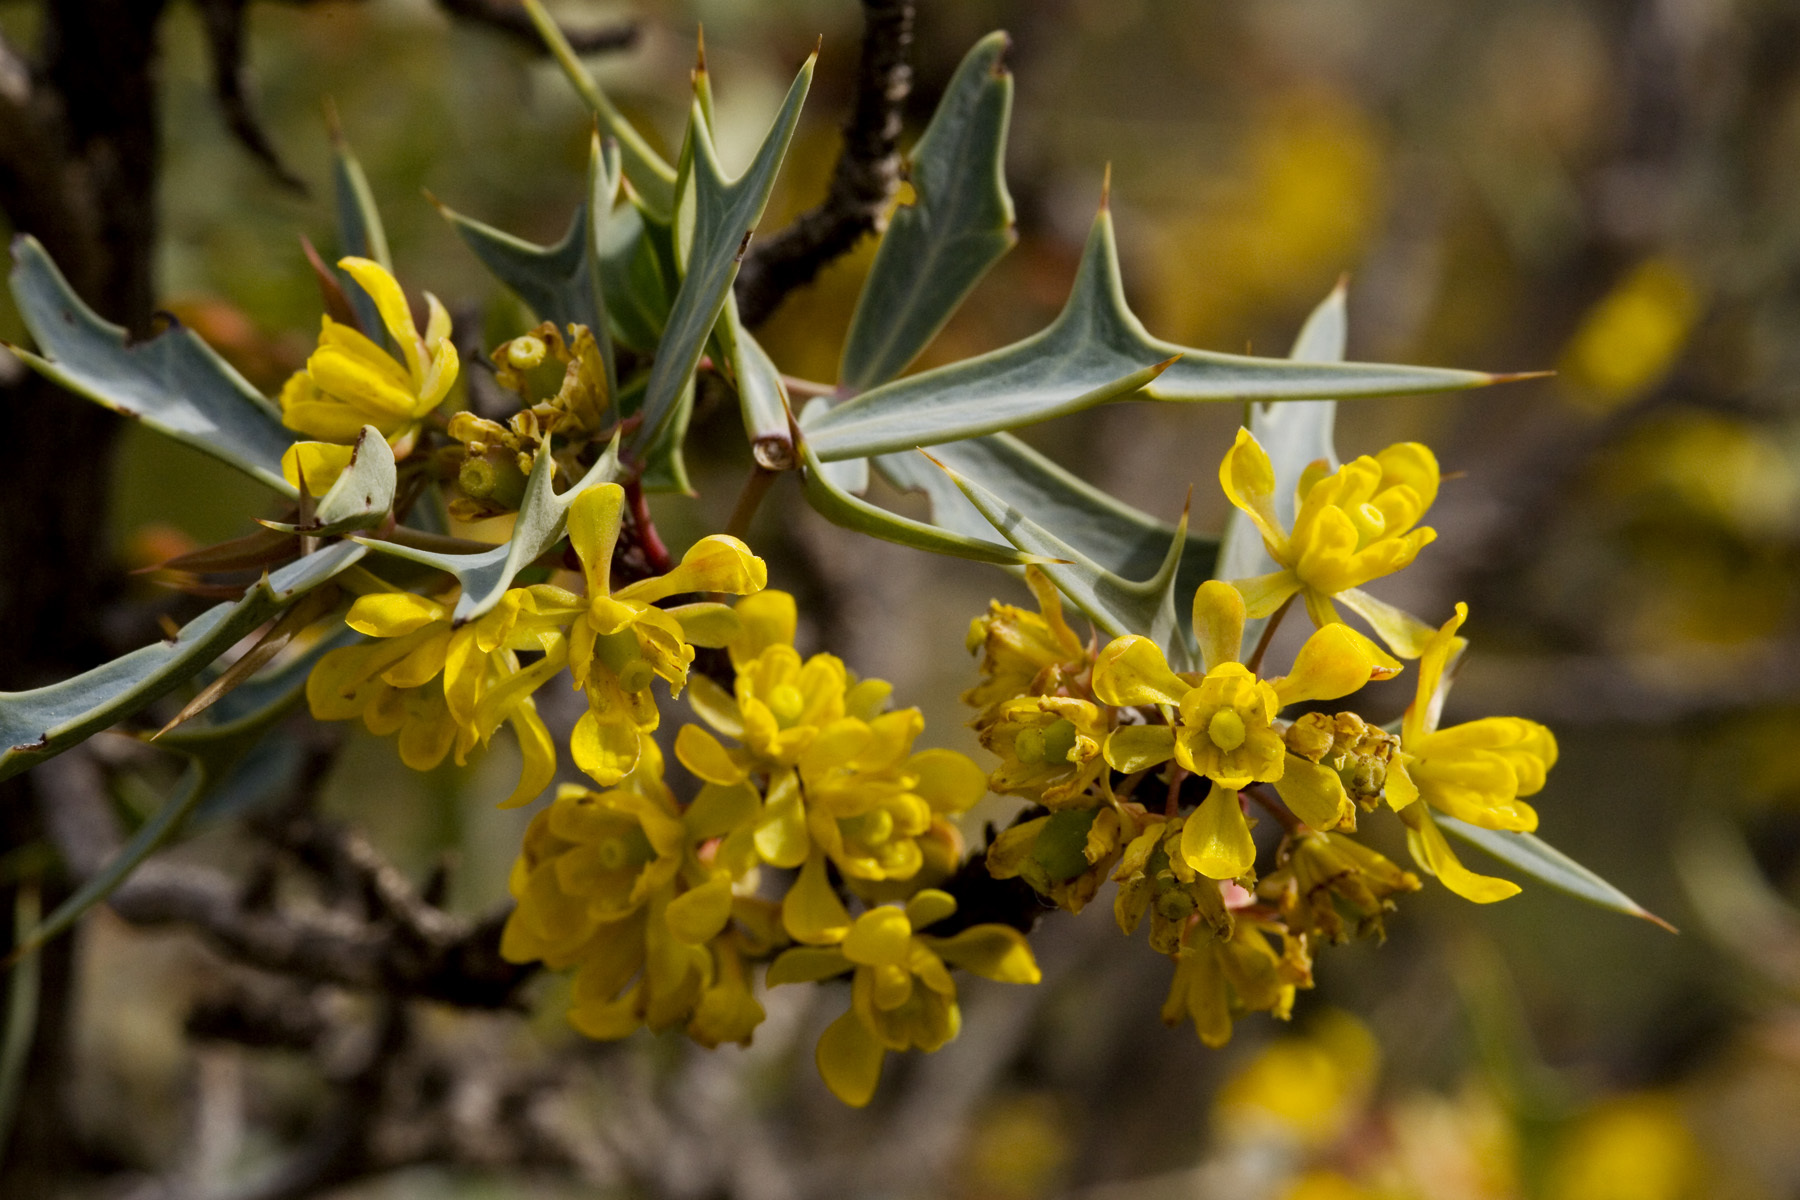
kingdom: Plantae
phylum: Tracheophyta
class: Magnoliopsida
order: Ranunculales
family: Berberidaceae
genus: Alloberberis
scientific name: Alloberberis trifoliolata
